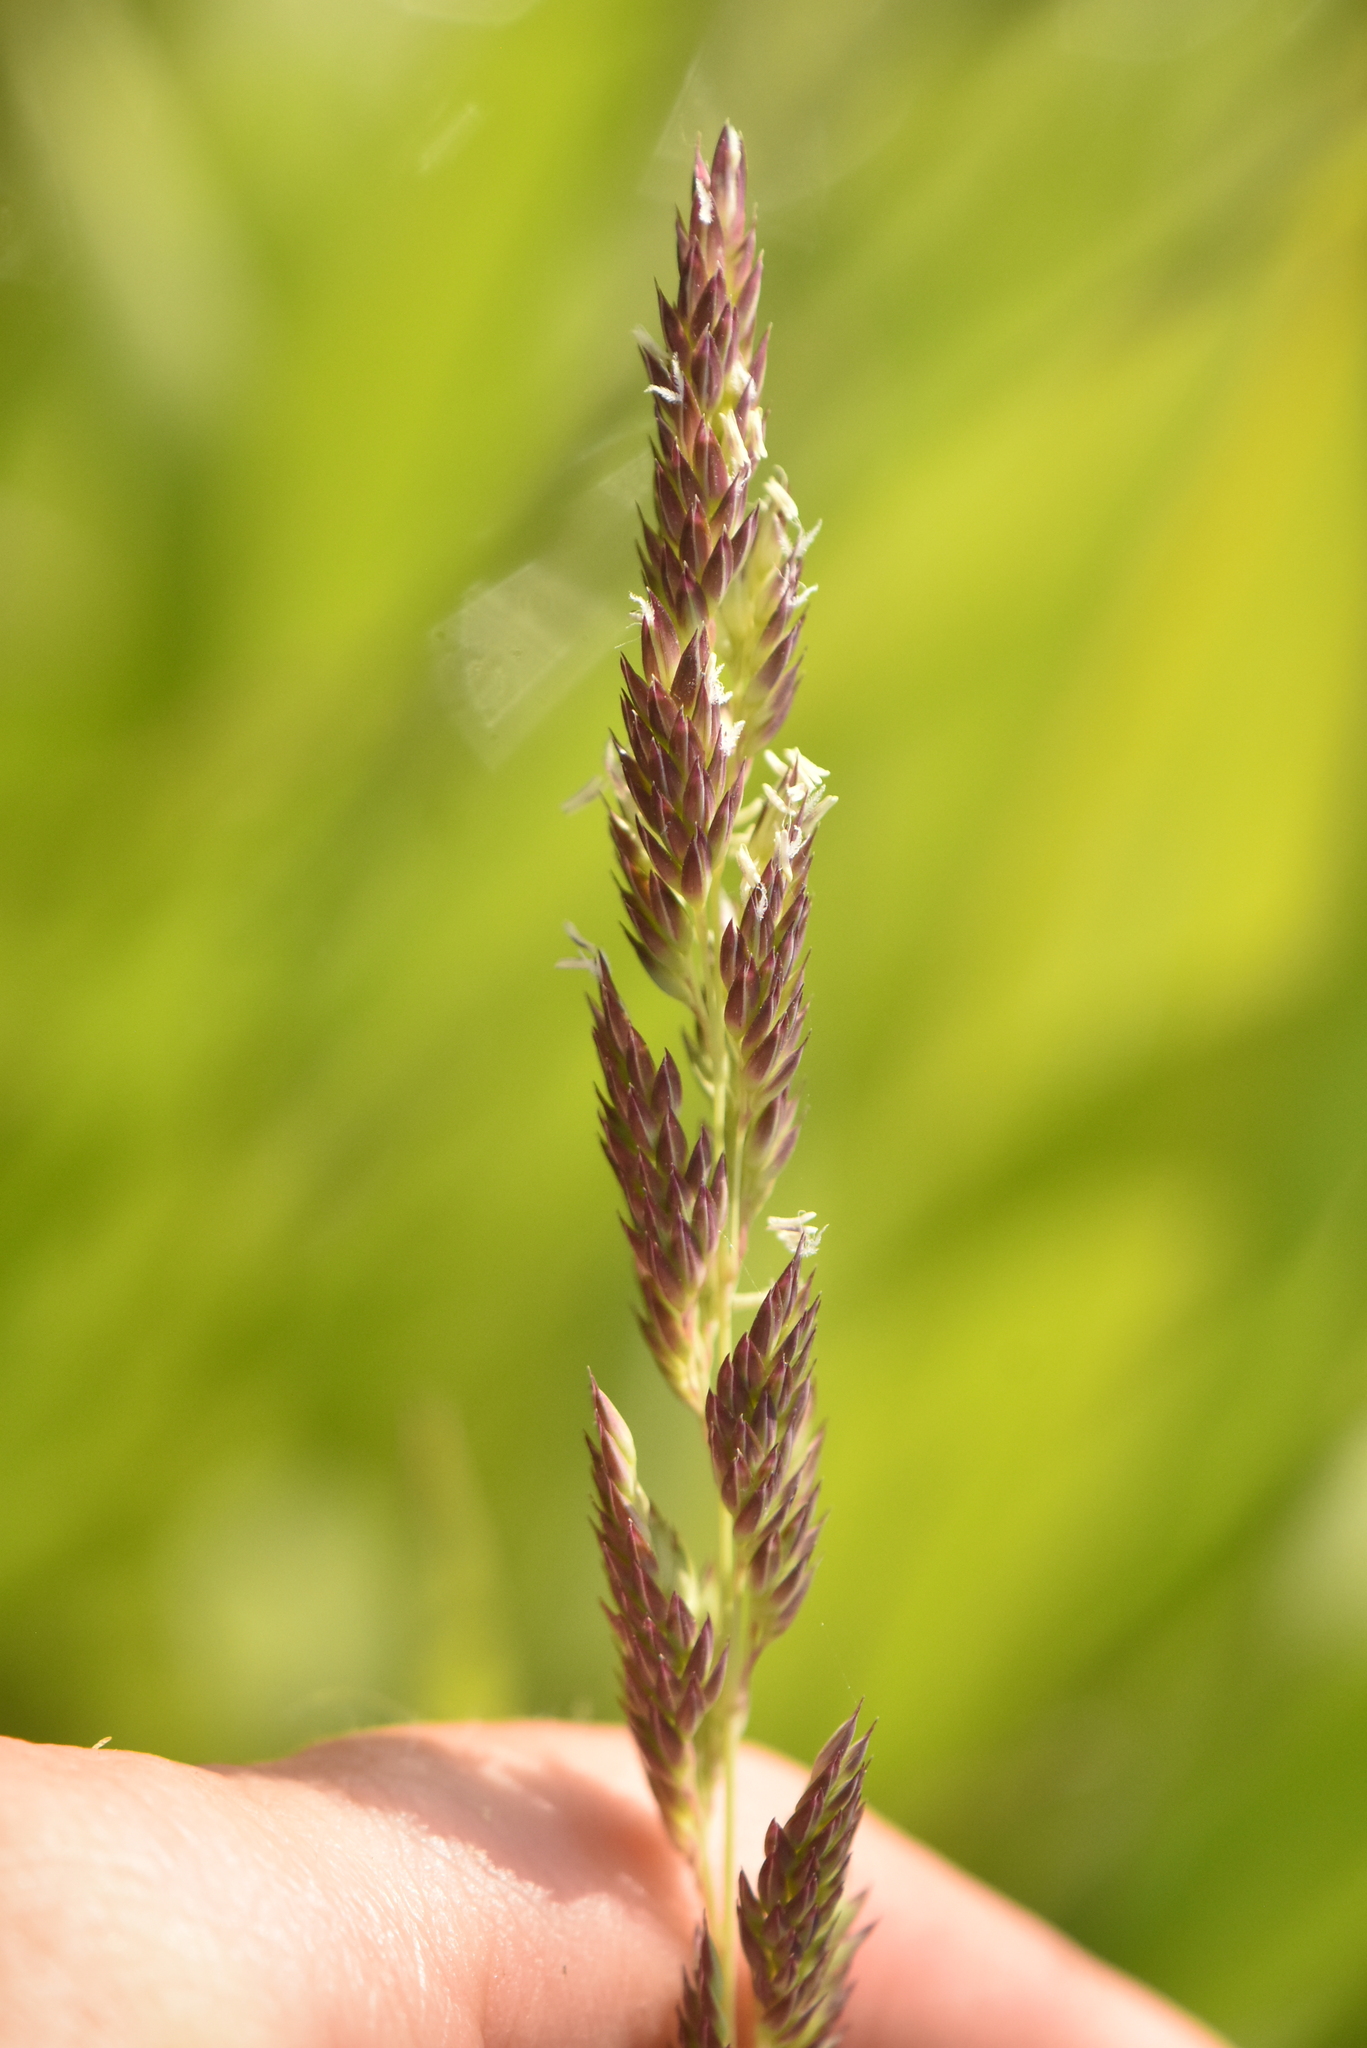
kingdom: Plantae
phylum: Tracheophyta
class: Liliopsida
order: Poales
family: Poaceae
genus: Phalaris
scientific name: Phalaris arundinacea
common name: Reed canary-grass
